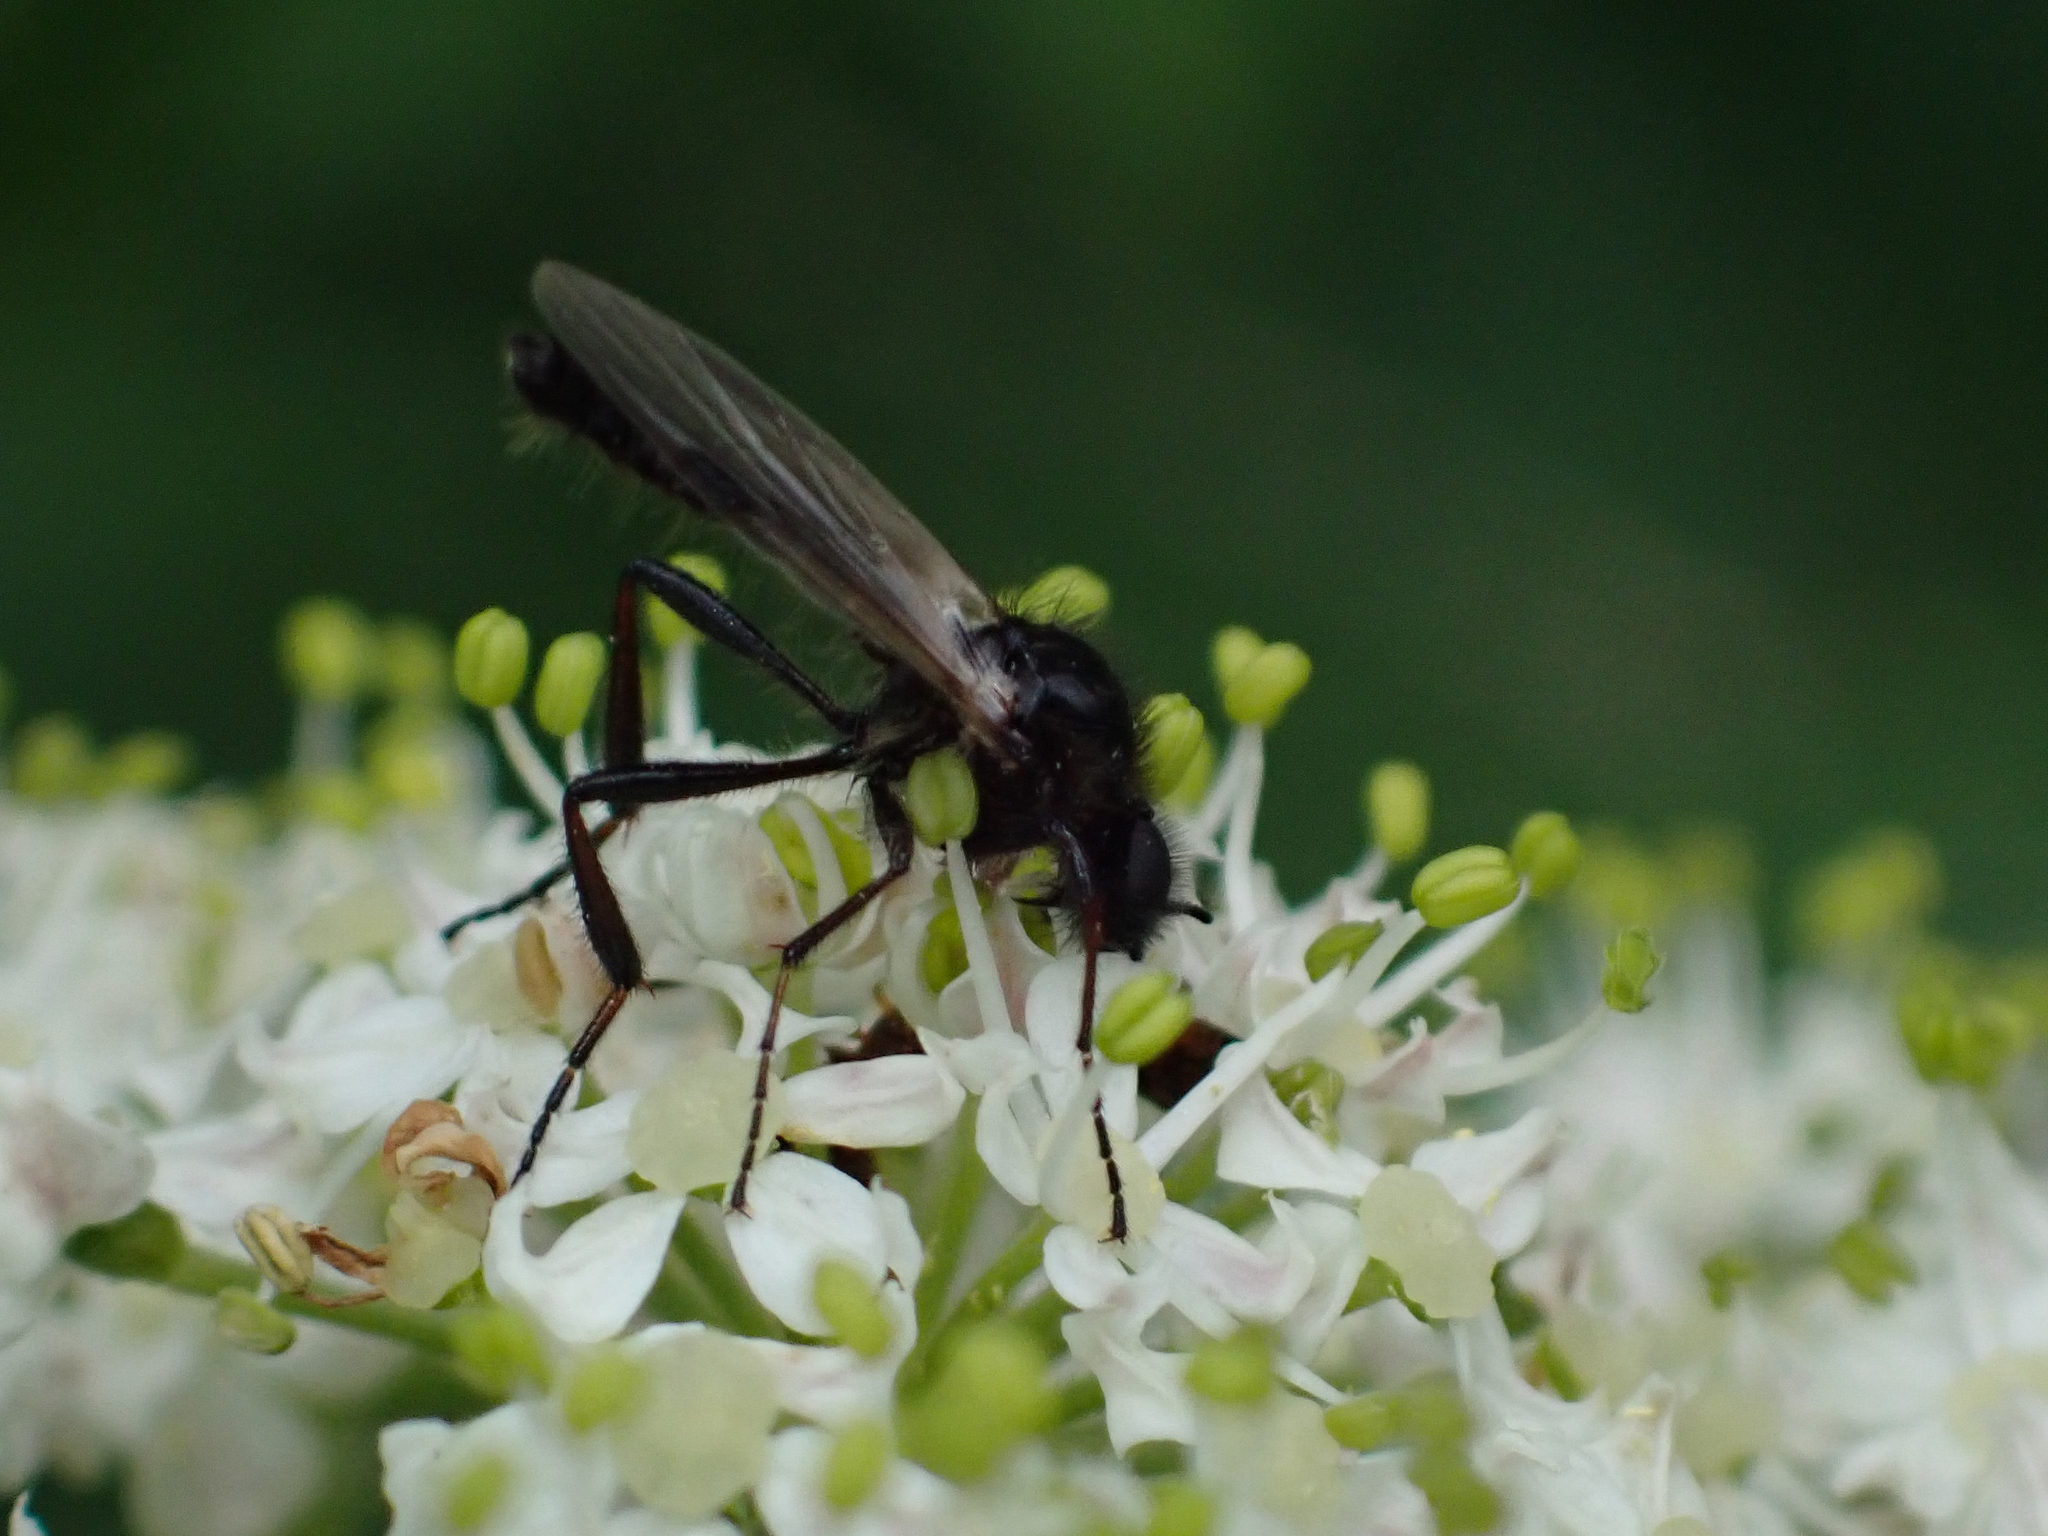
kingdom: Animalia
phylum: Arthropoda
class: Insecta
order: Diptera
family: Bibionidae
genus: Bibio
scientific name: Bibio vestitus
